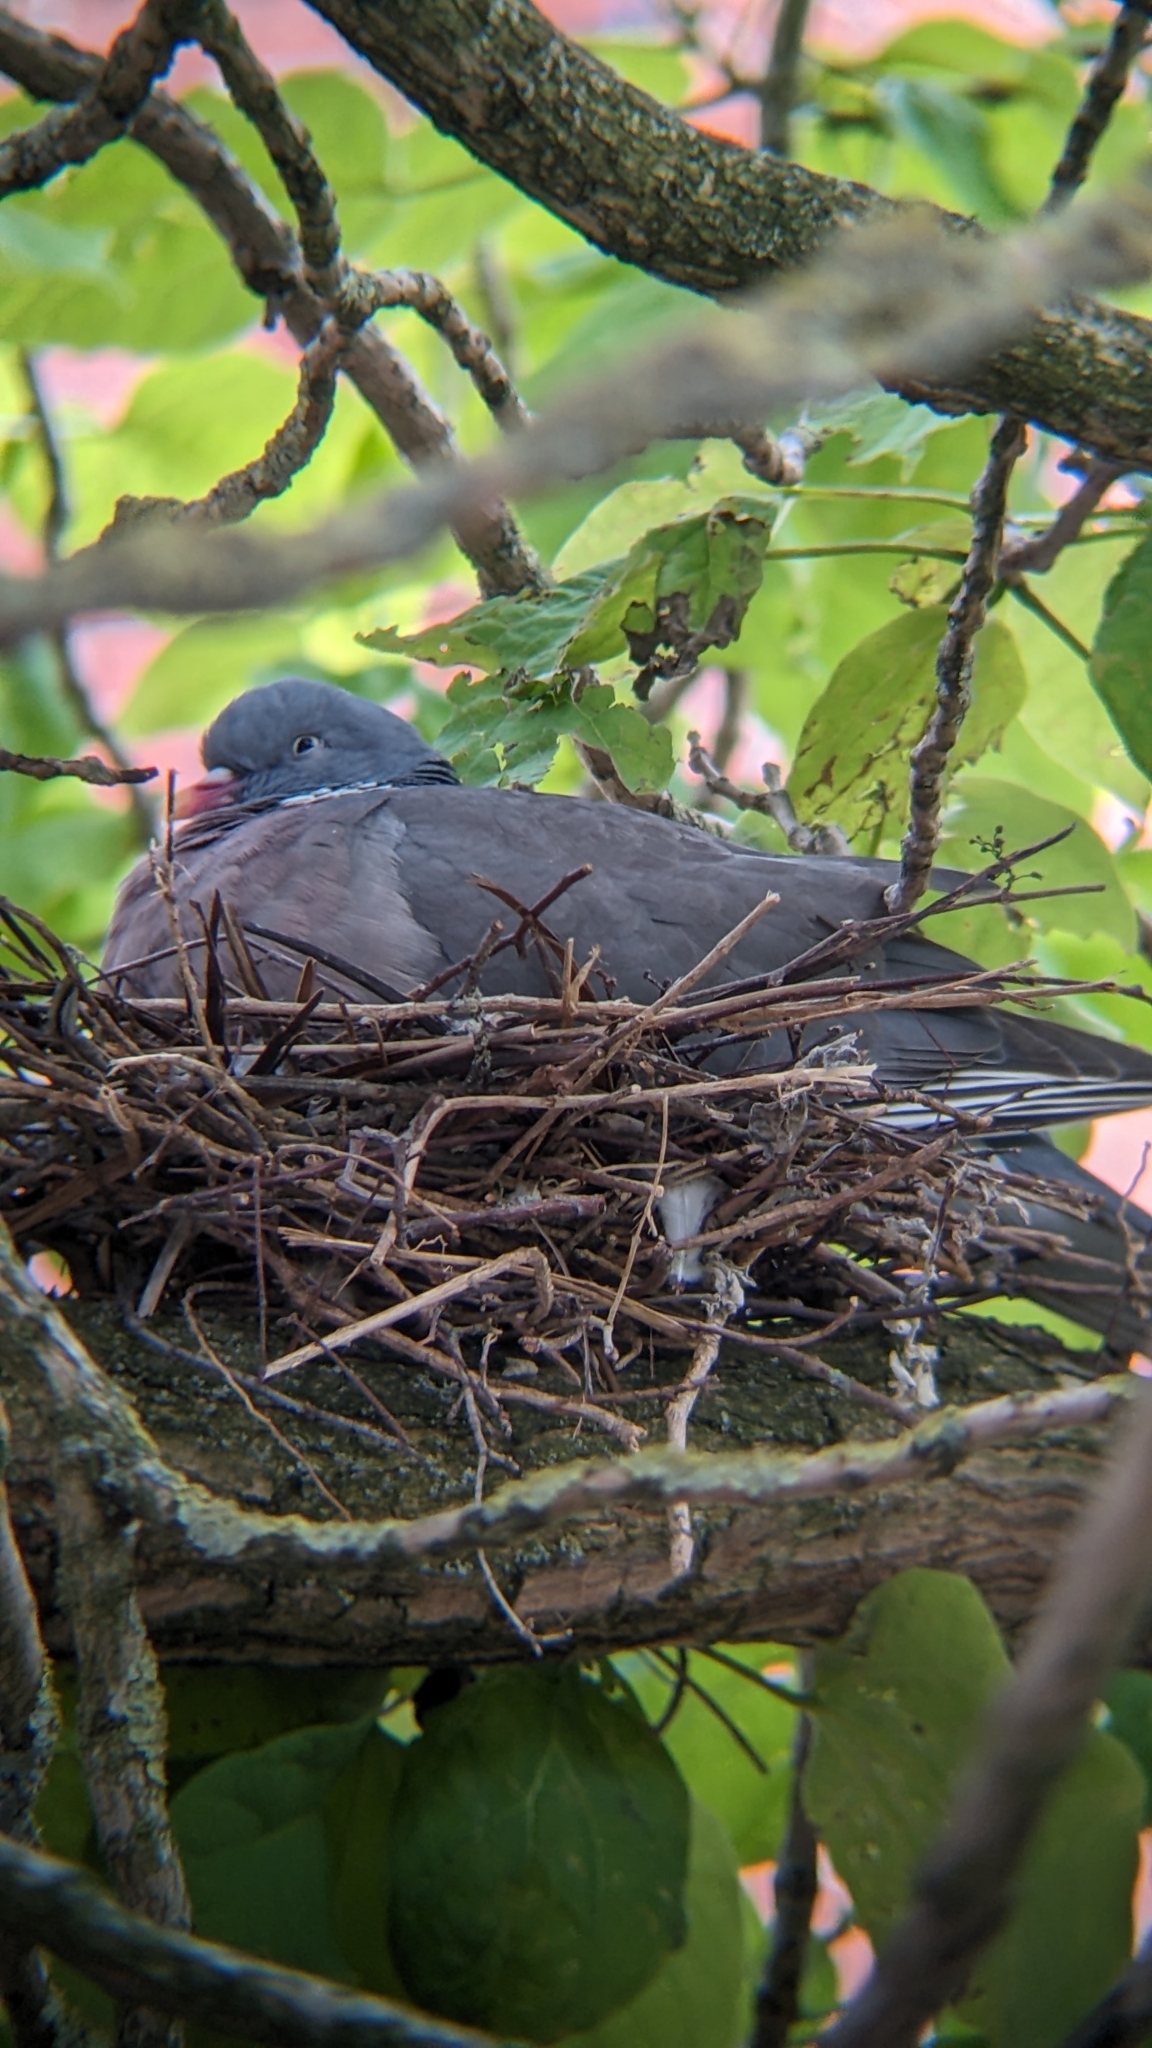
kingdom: Animalia
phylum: Chordata
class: Aves
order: Columbiformes
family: Columbidae
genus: Columba
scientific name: Columba palumbus
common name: Common wood pigeon
